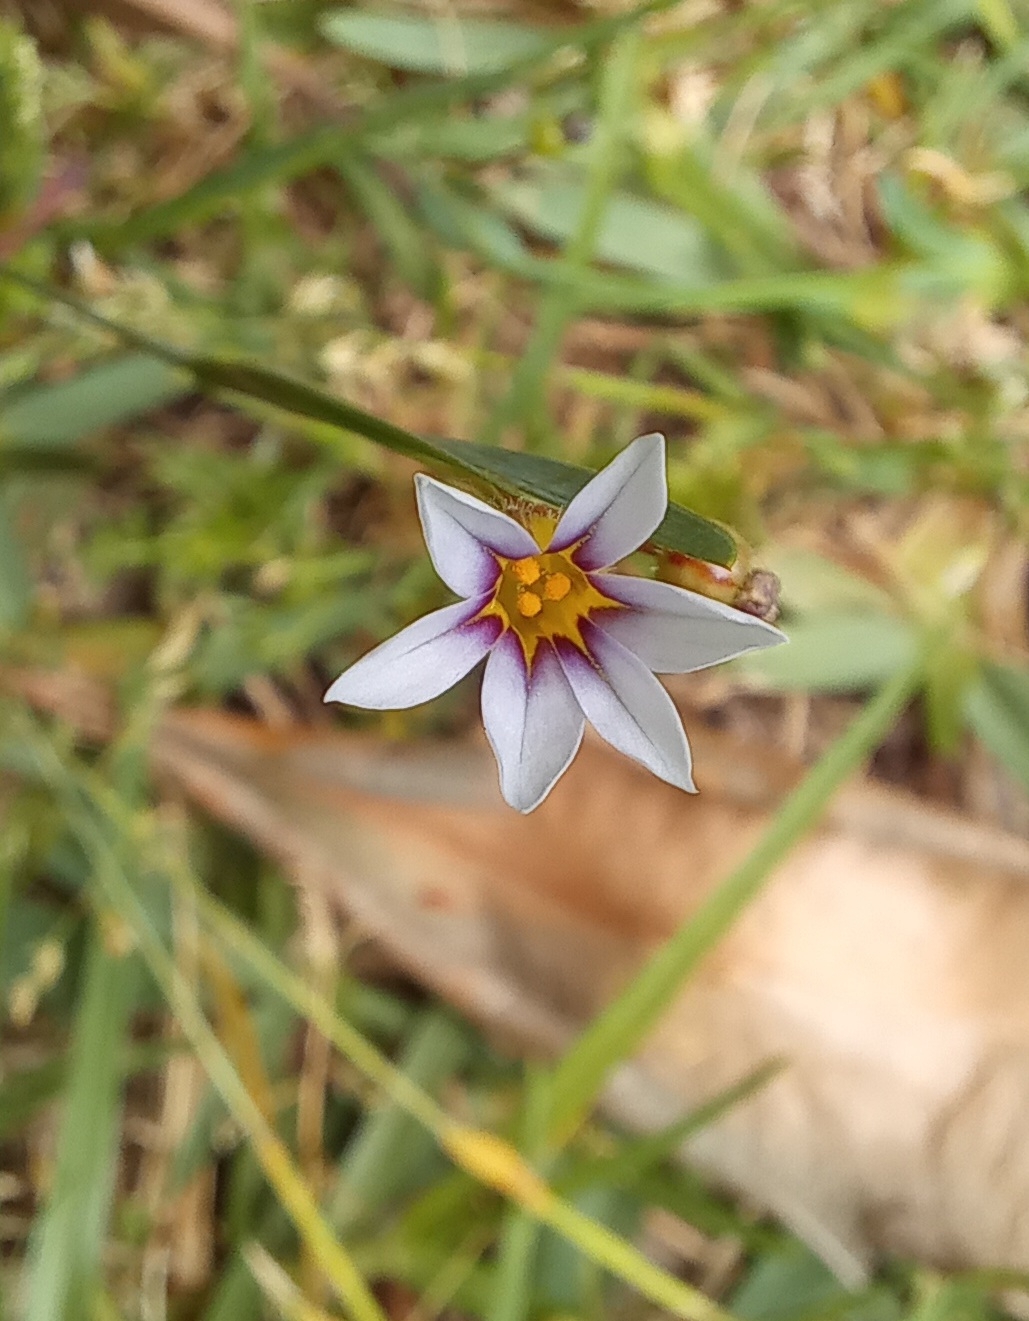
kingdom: Plantae
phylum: Tracheophyta
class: Liliopsida
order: Asparagales
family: Iridaceae
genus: Sisyrinchium
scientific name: Sisyrinchium micranthum
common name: Bermuda pigroot
